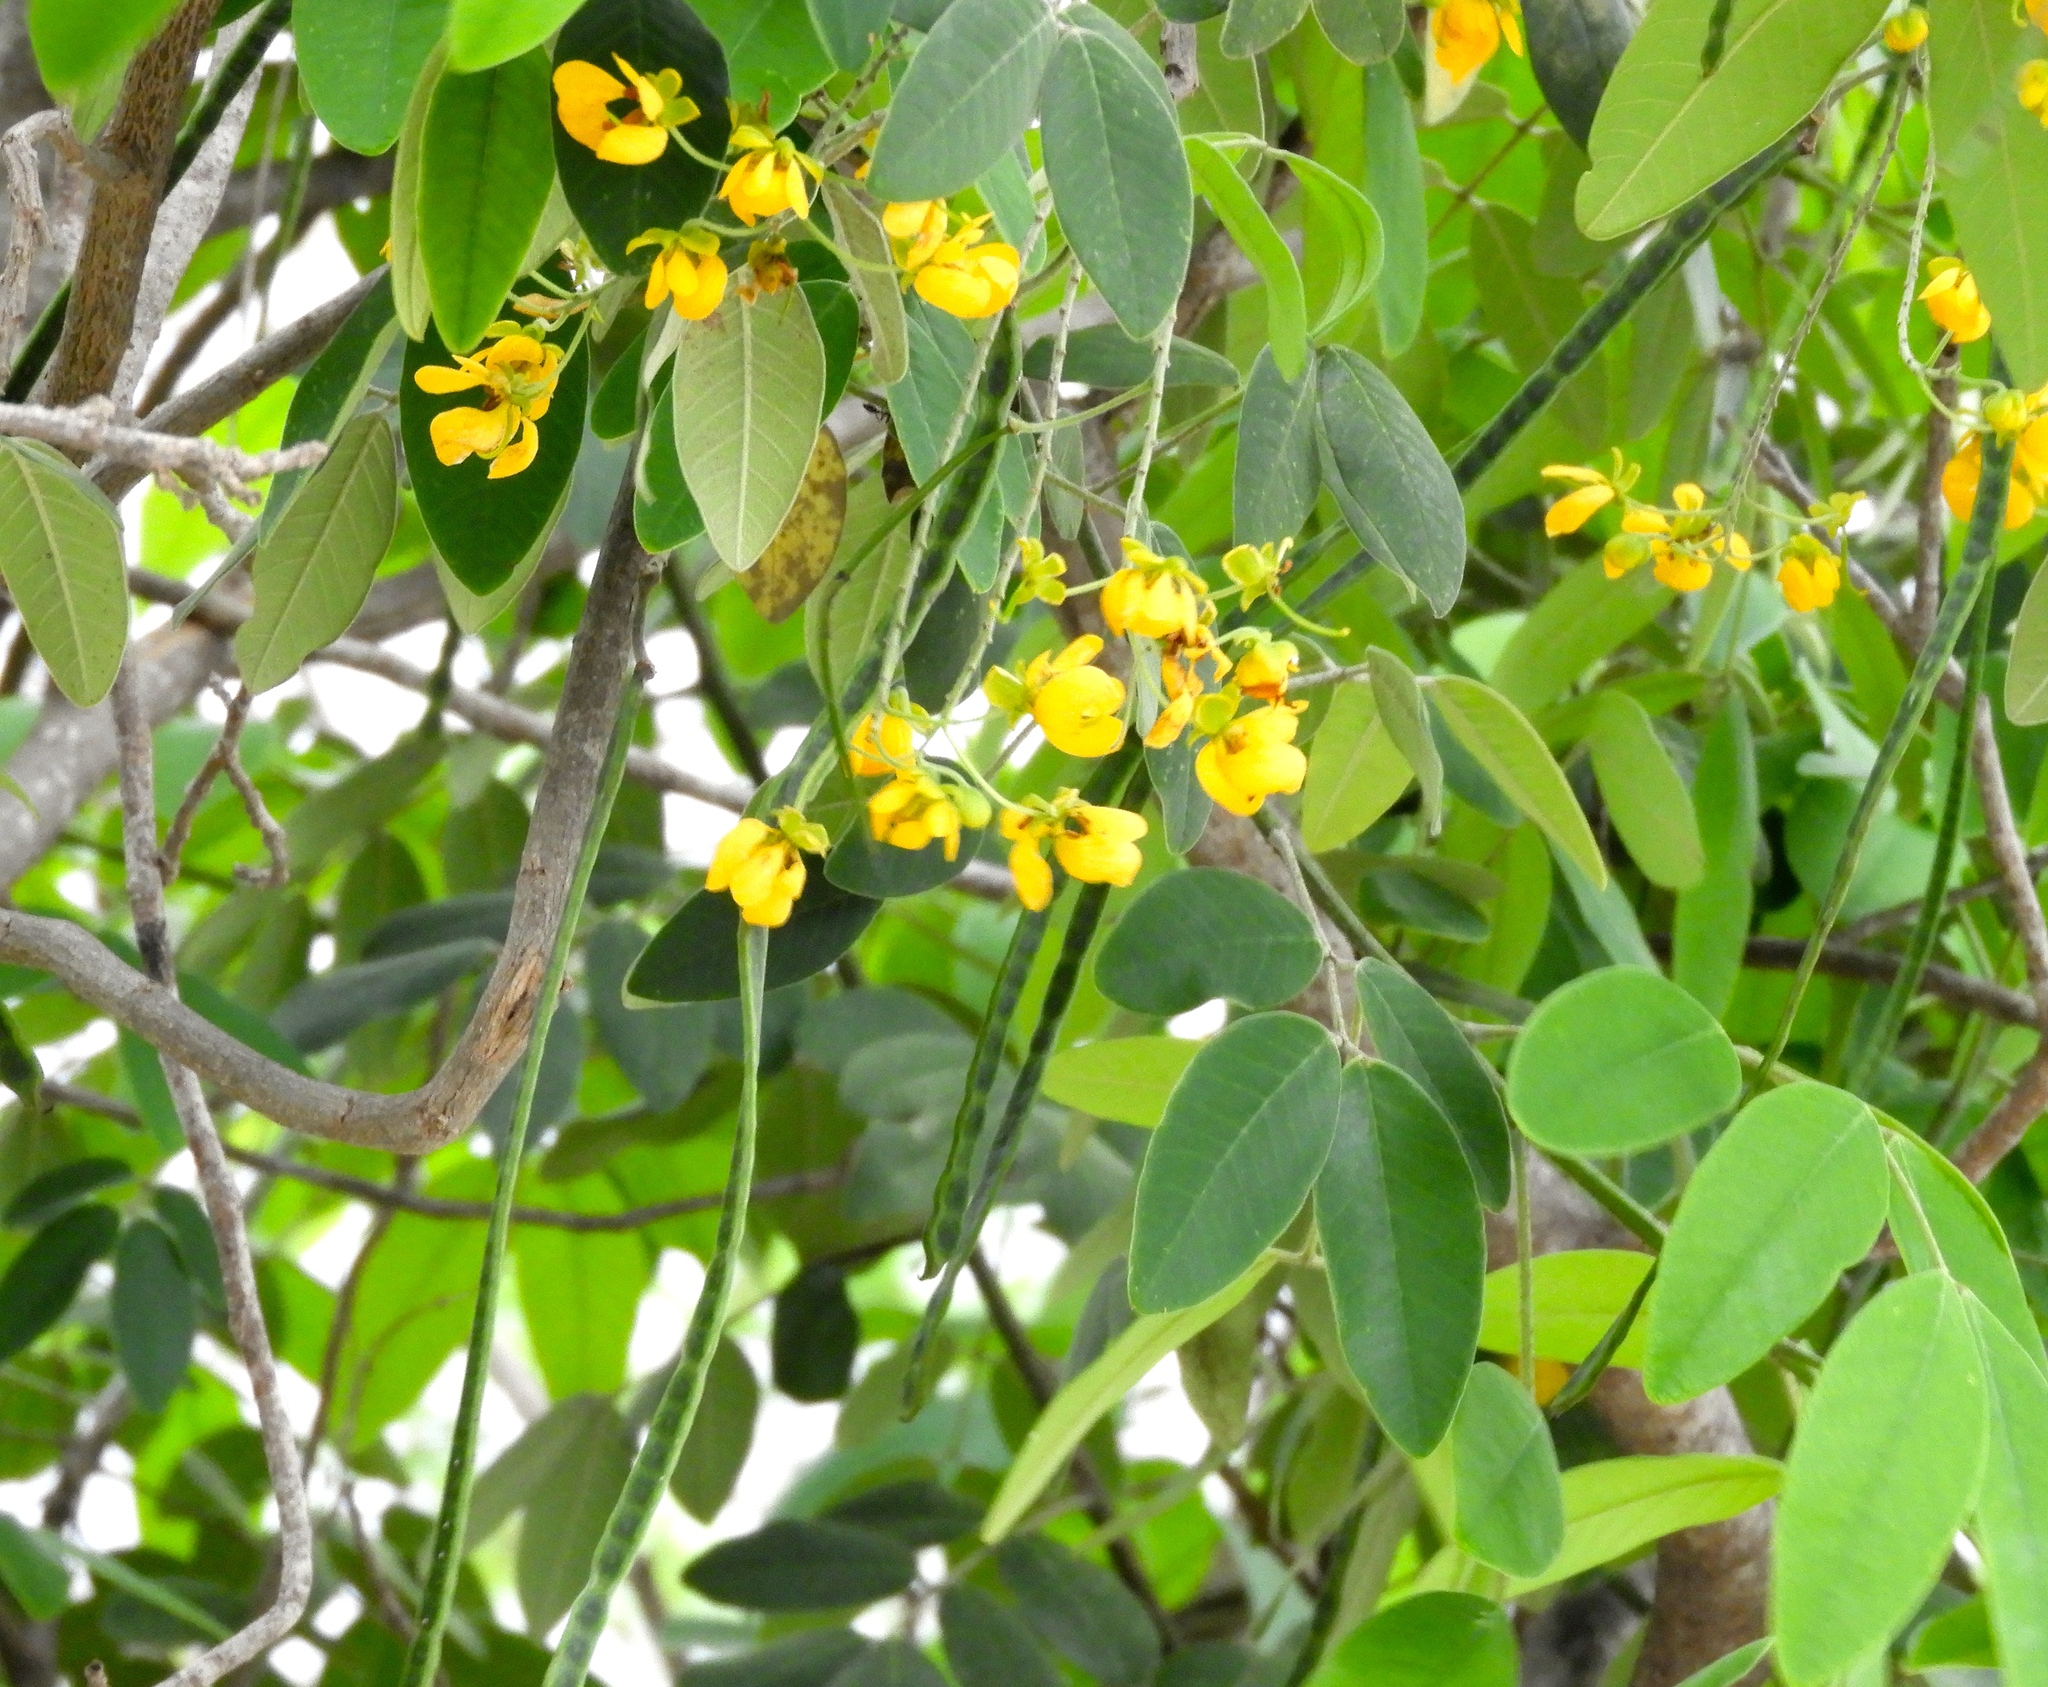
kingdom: Plantae
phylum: Tracheophyta
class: Magnoliopsida
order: Fabales
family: Fabaceae
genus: Senna
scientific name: Senna atomaria
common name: Flor de san jose
